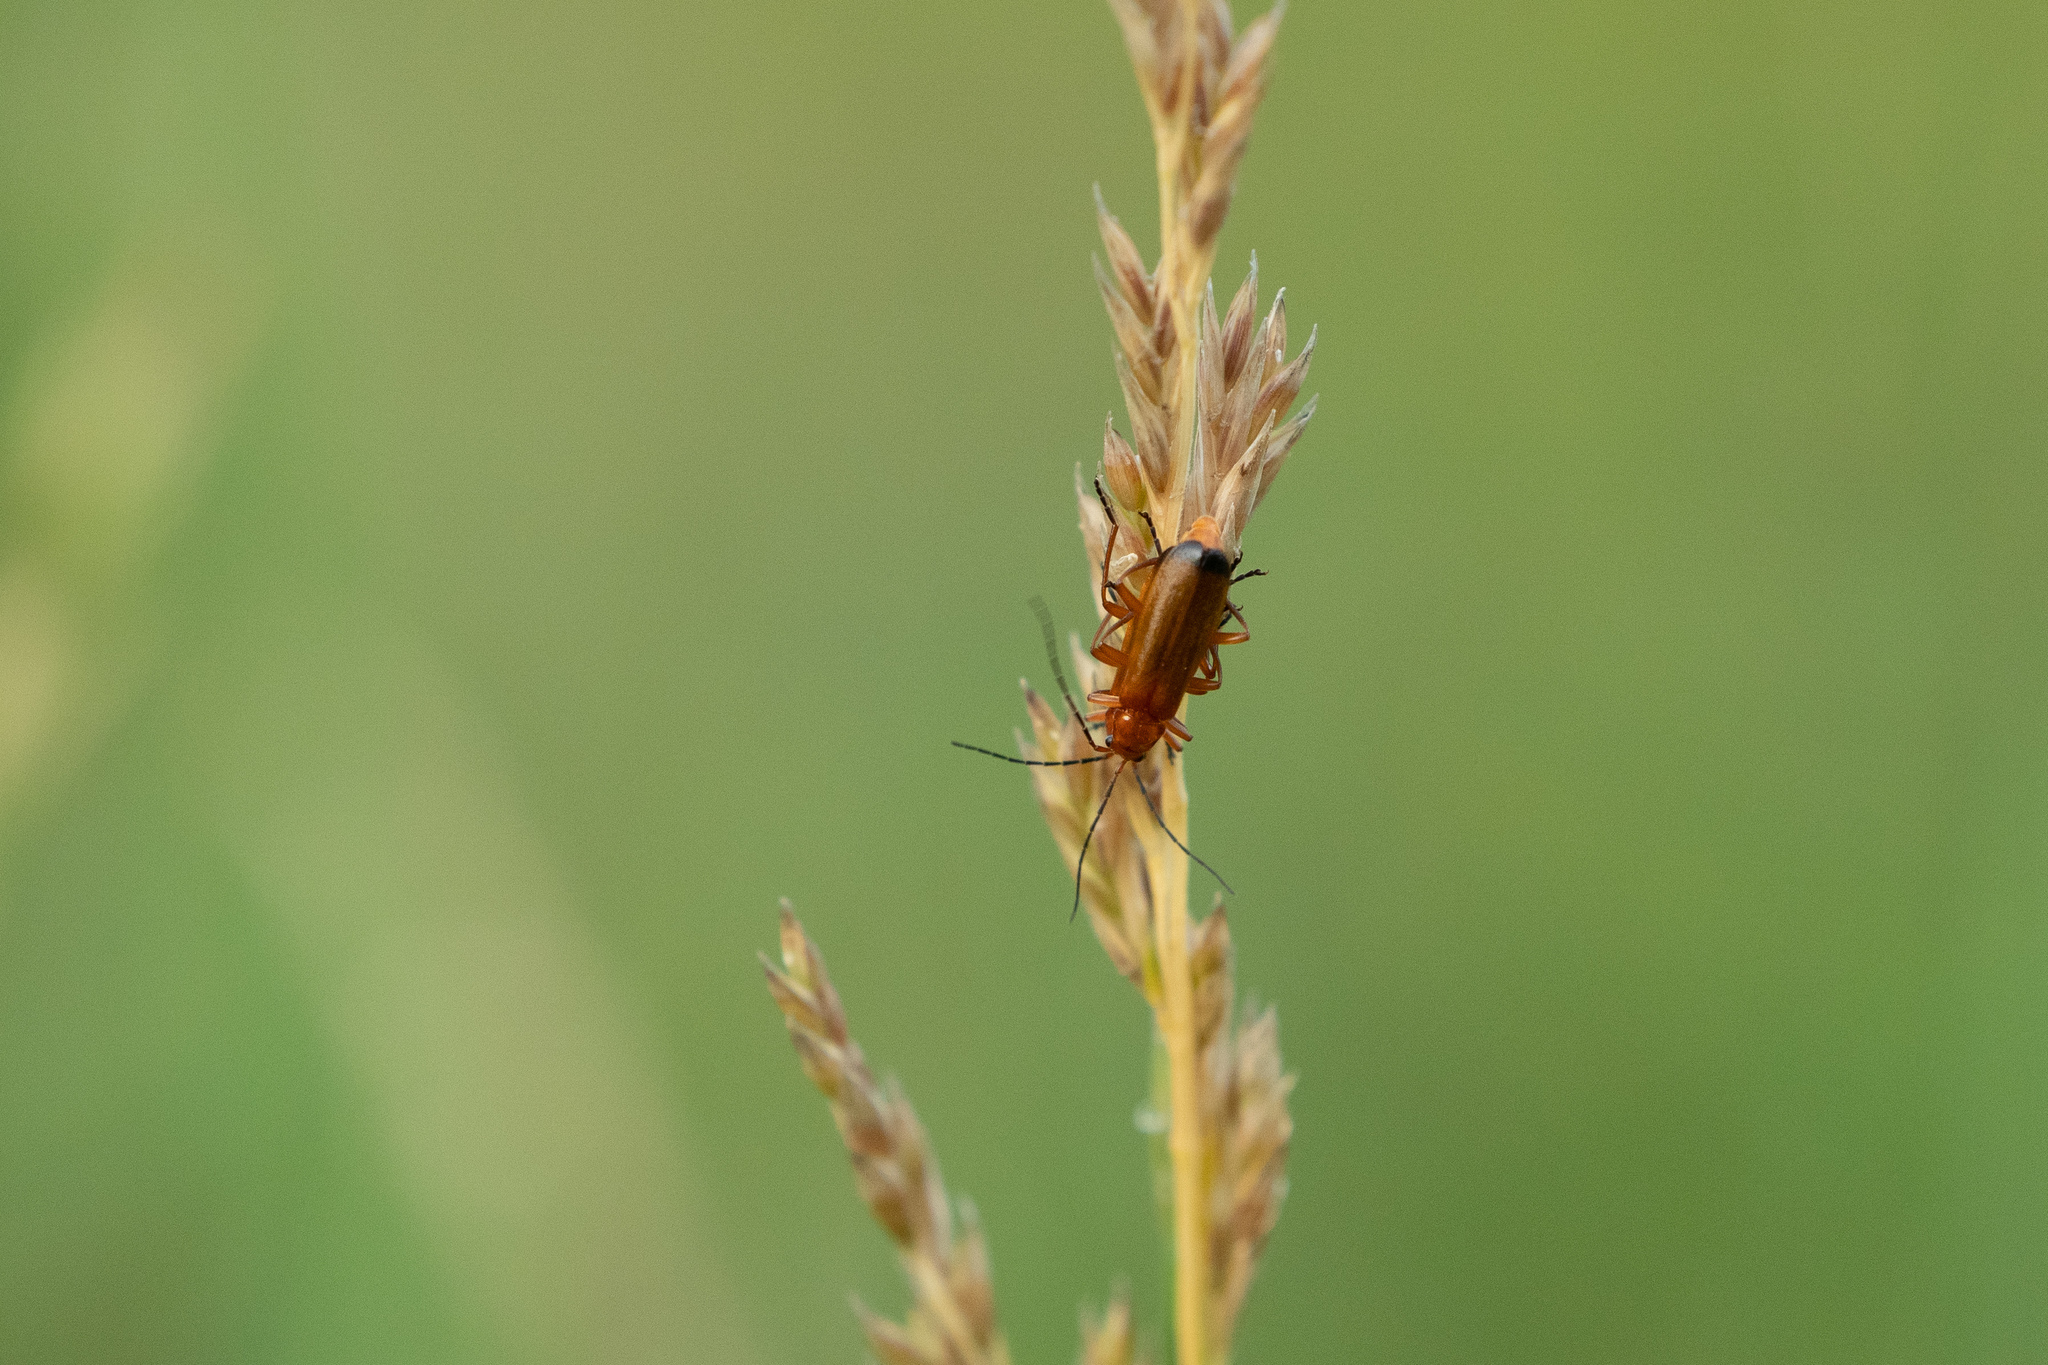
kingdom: Animalia
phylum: Arthropoda
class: Insecta
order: Coleoptera
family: Cantharidae
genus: Rhagonycha
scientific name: Rhagonycha fulva
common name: Common red soldier beetle
